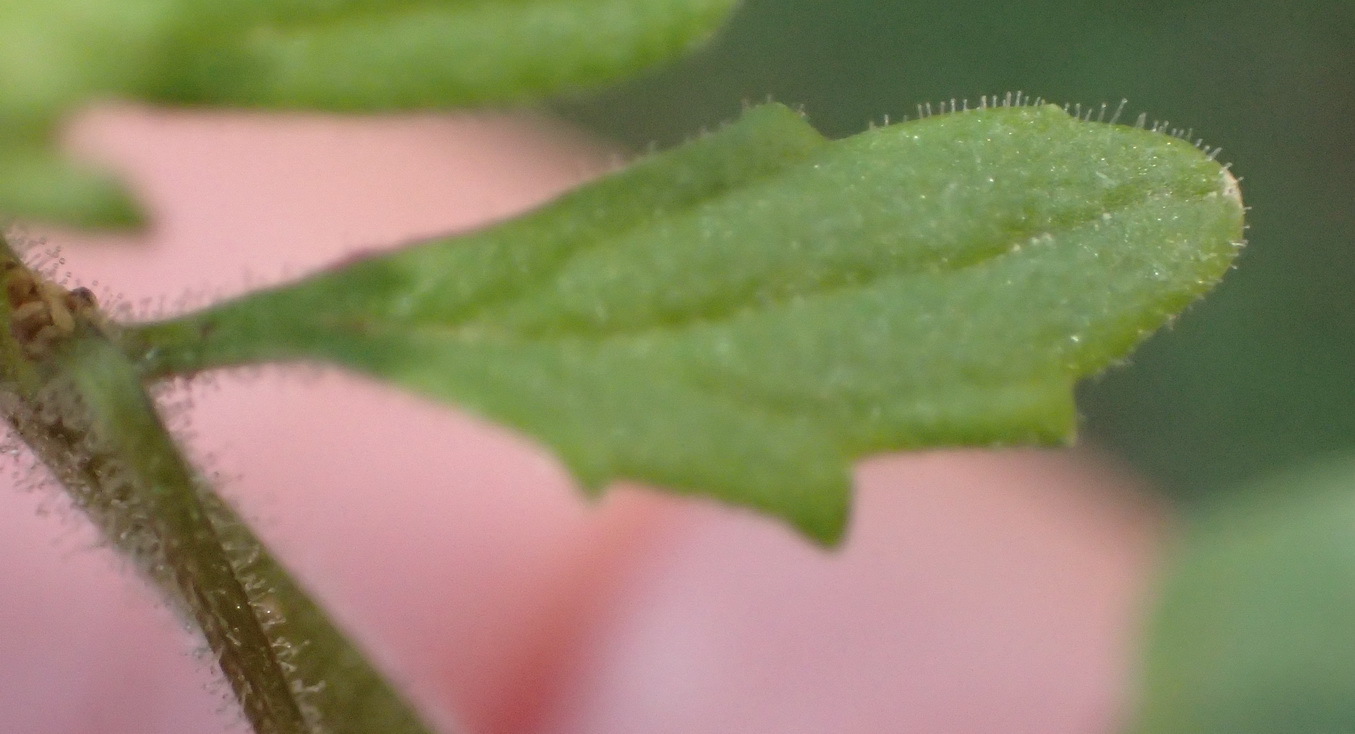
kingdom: Plantae
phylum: Tracheophyta
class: Magnoliopsida
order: Lamiales
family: Scrophulariaceae
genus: Hemimeris
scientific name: Hemimeris gracilis
